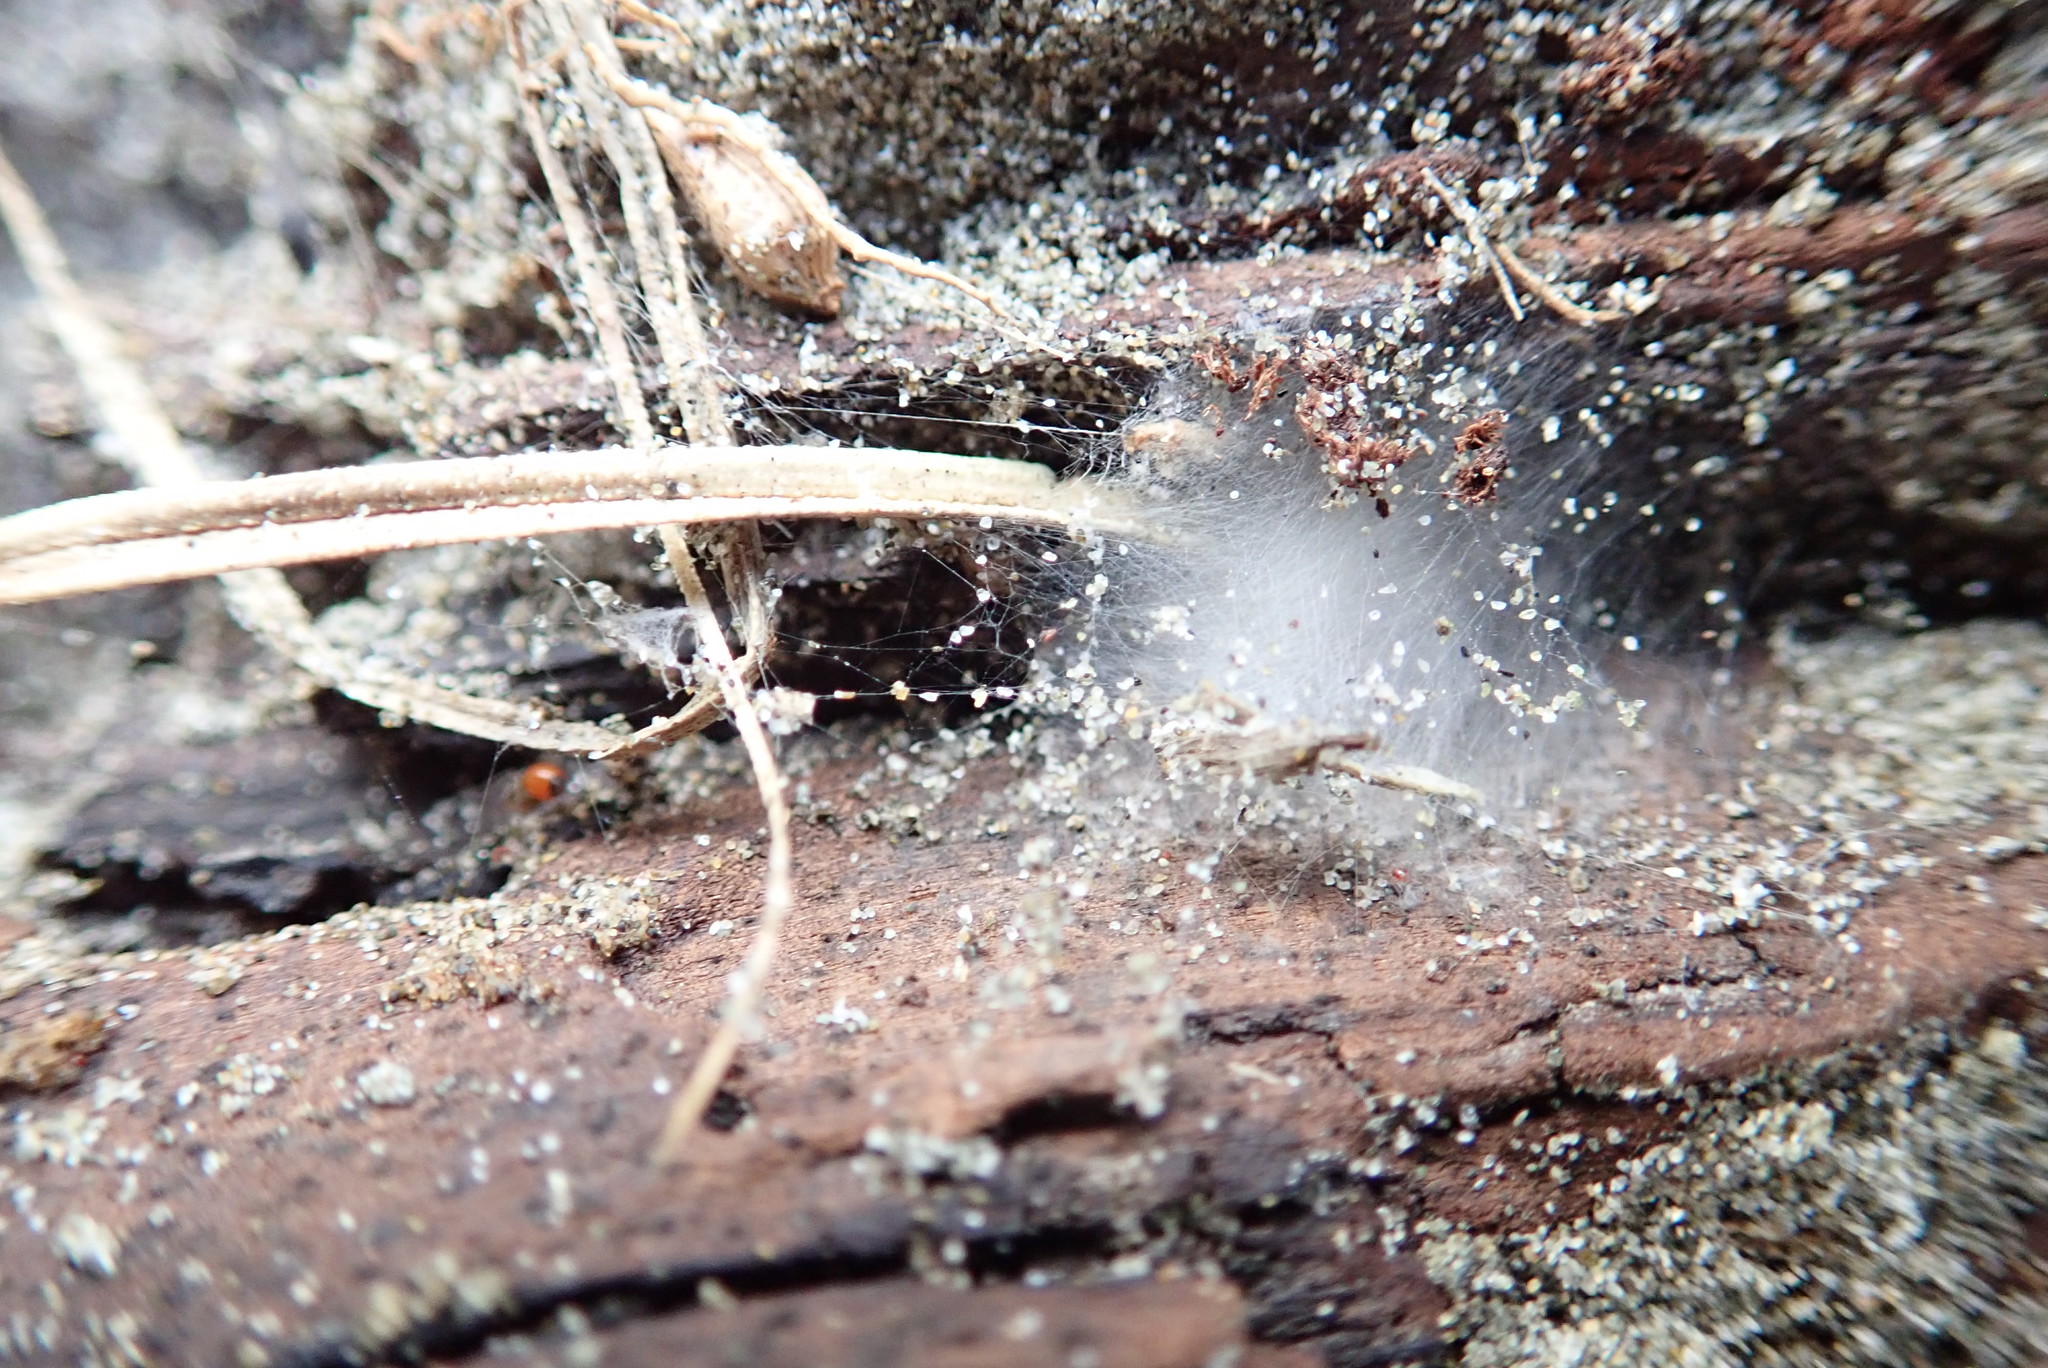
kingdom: Animalia
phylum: Arthropoda
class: Arachnida
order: Araneae
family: Linyphiidae
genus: Ostearius
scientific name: Ostearius melanopygius
